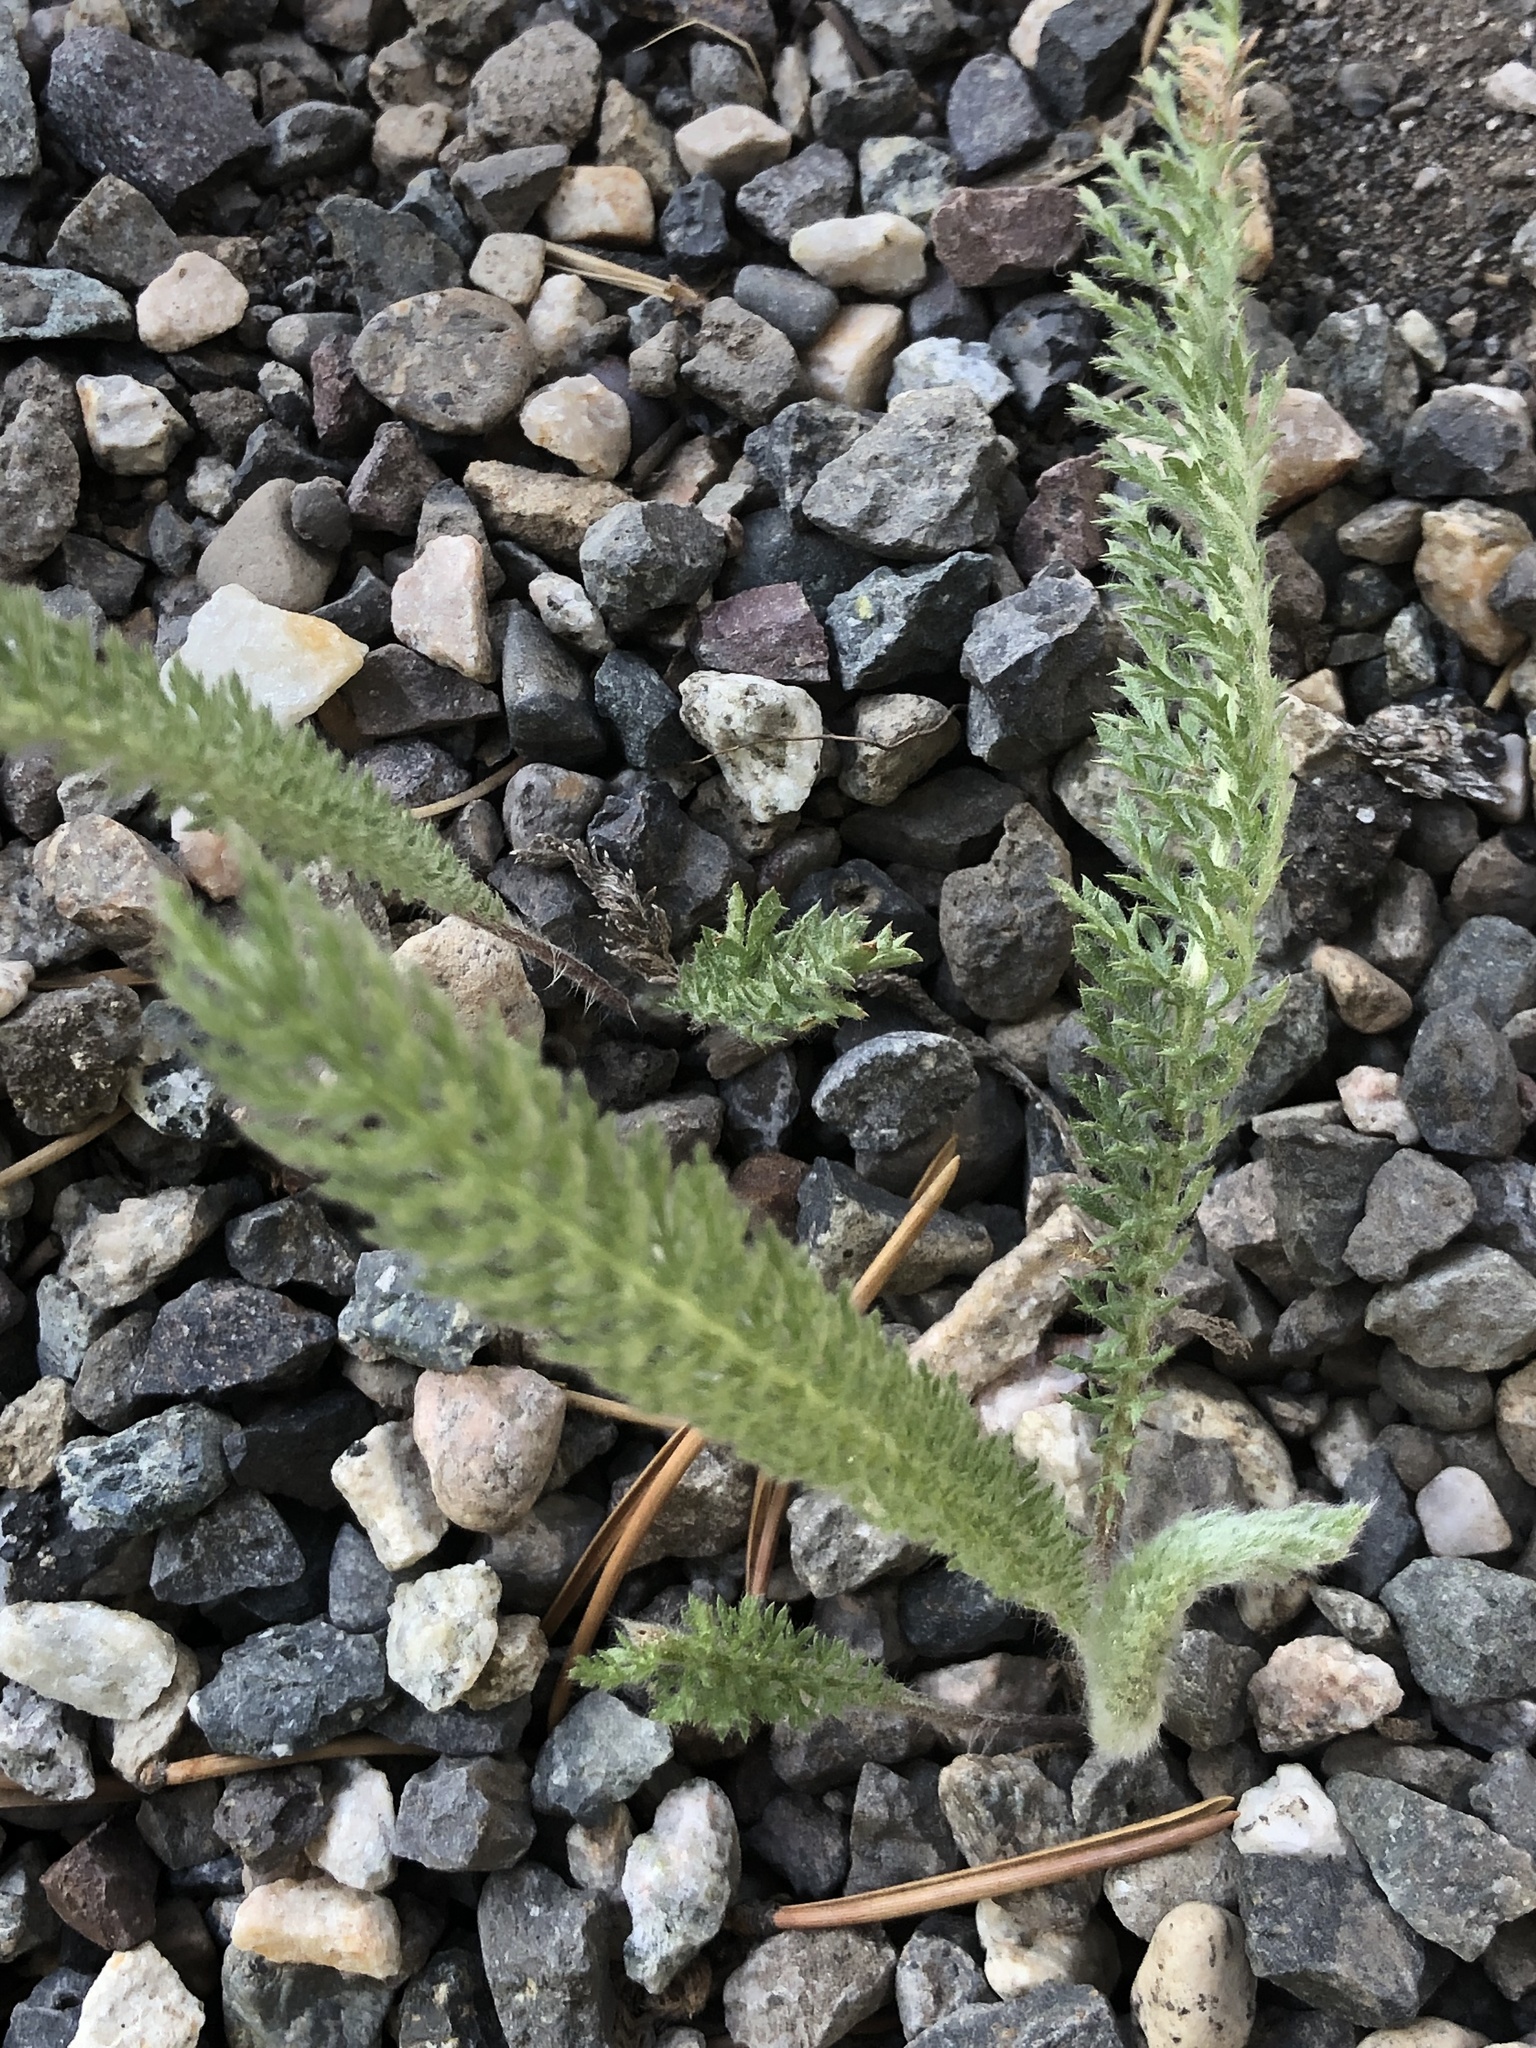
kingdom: Plantae
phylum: Tracheophyta
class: Magnoliopsida
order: Asterales
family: Asteraceae
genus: Achillea
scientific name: Achillea millefolium
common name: Yarrow
